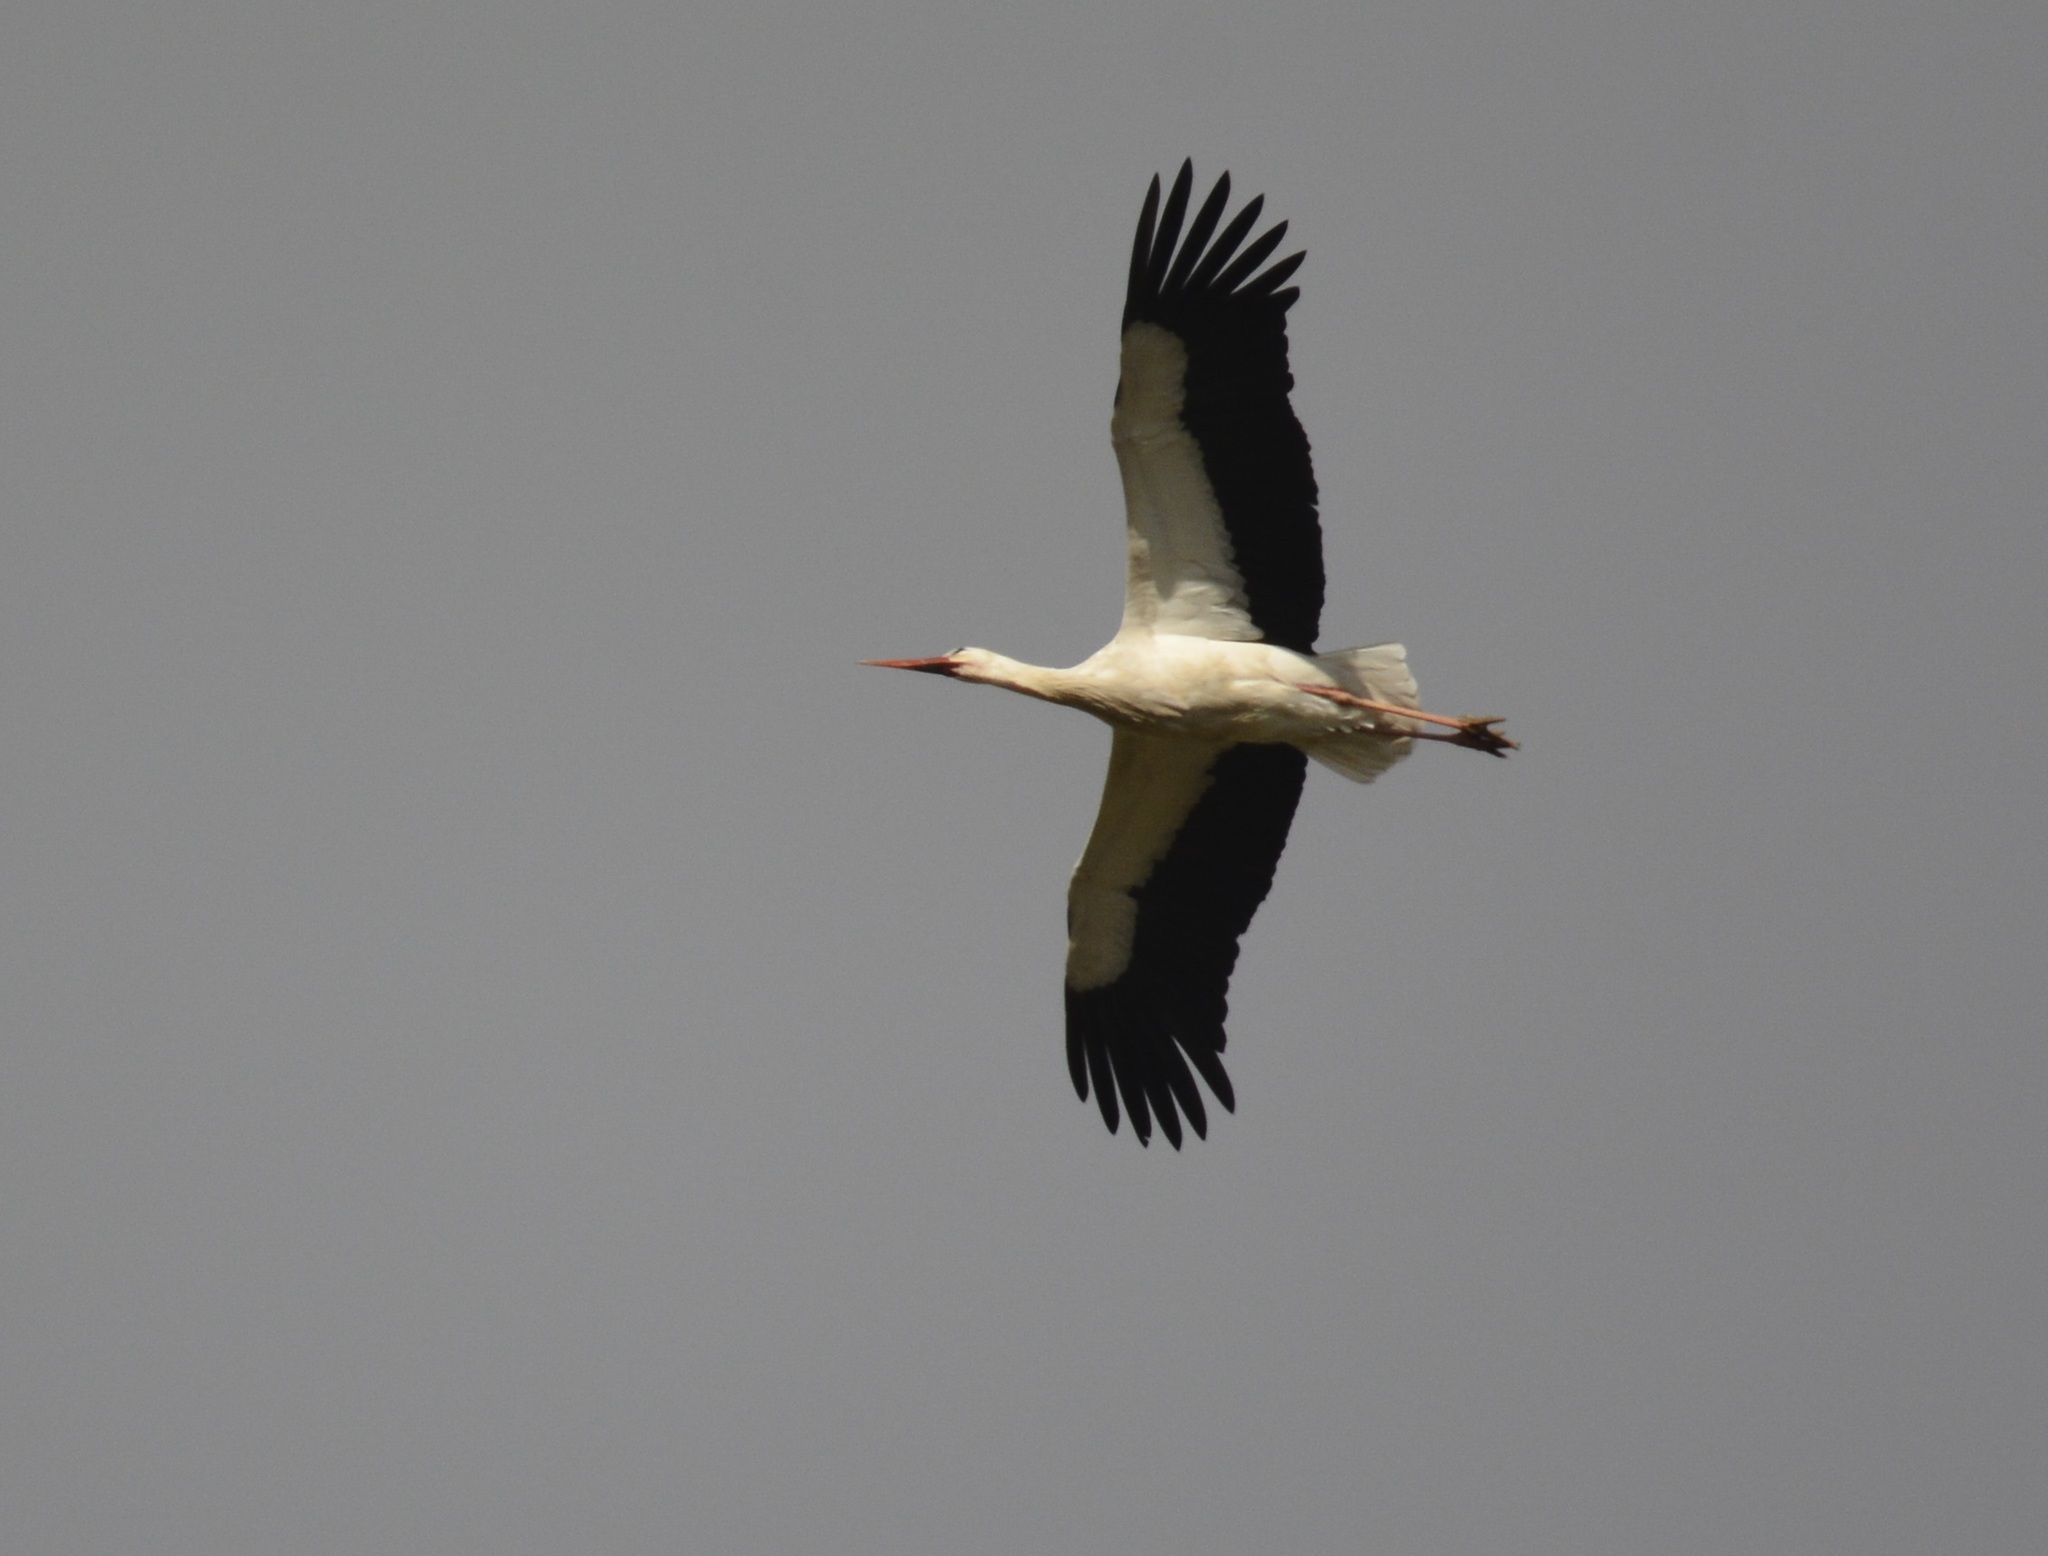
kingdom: Animalia
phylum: Chordata
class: Aves
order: Ciconiiformes
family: Ciconiidae
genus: Ciconia
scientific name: Ciconia ciconia
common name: White stork
